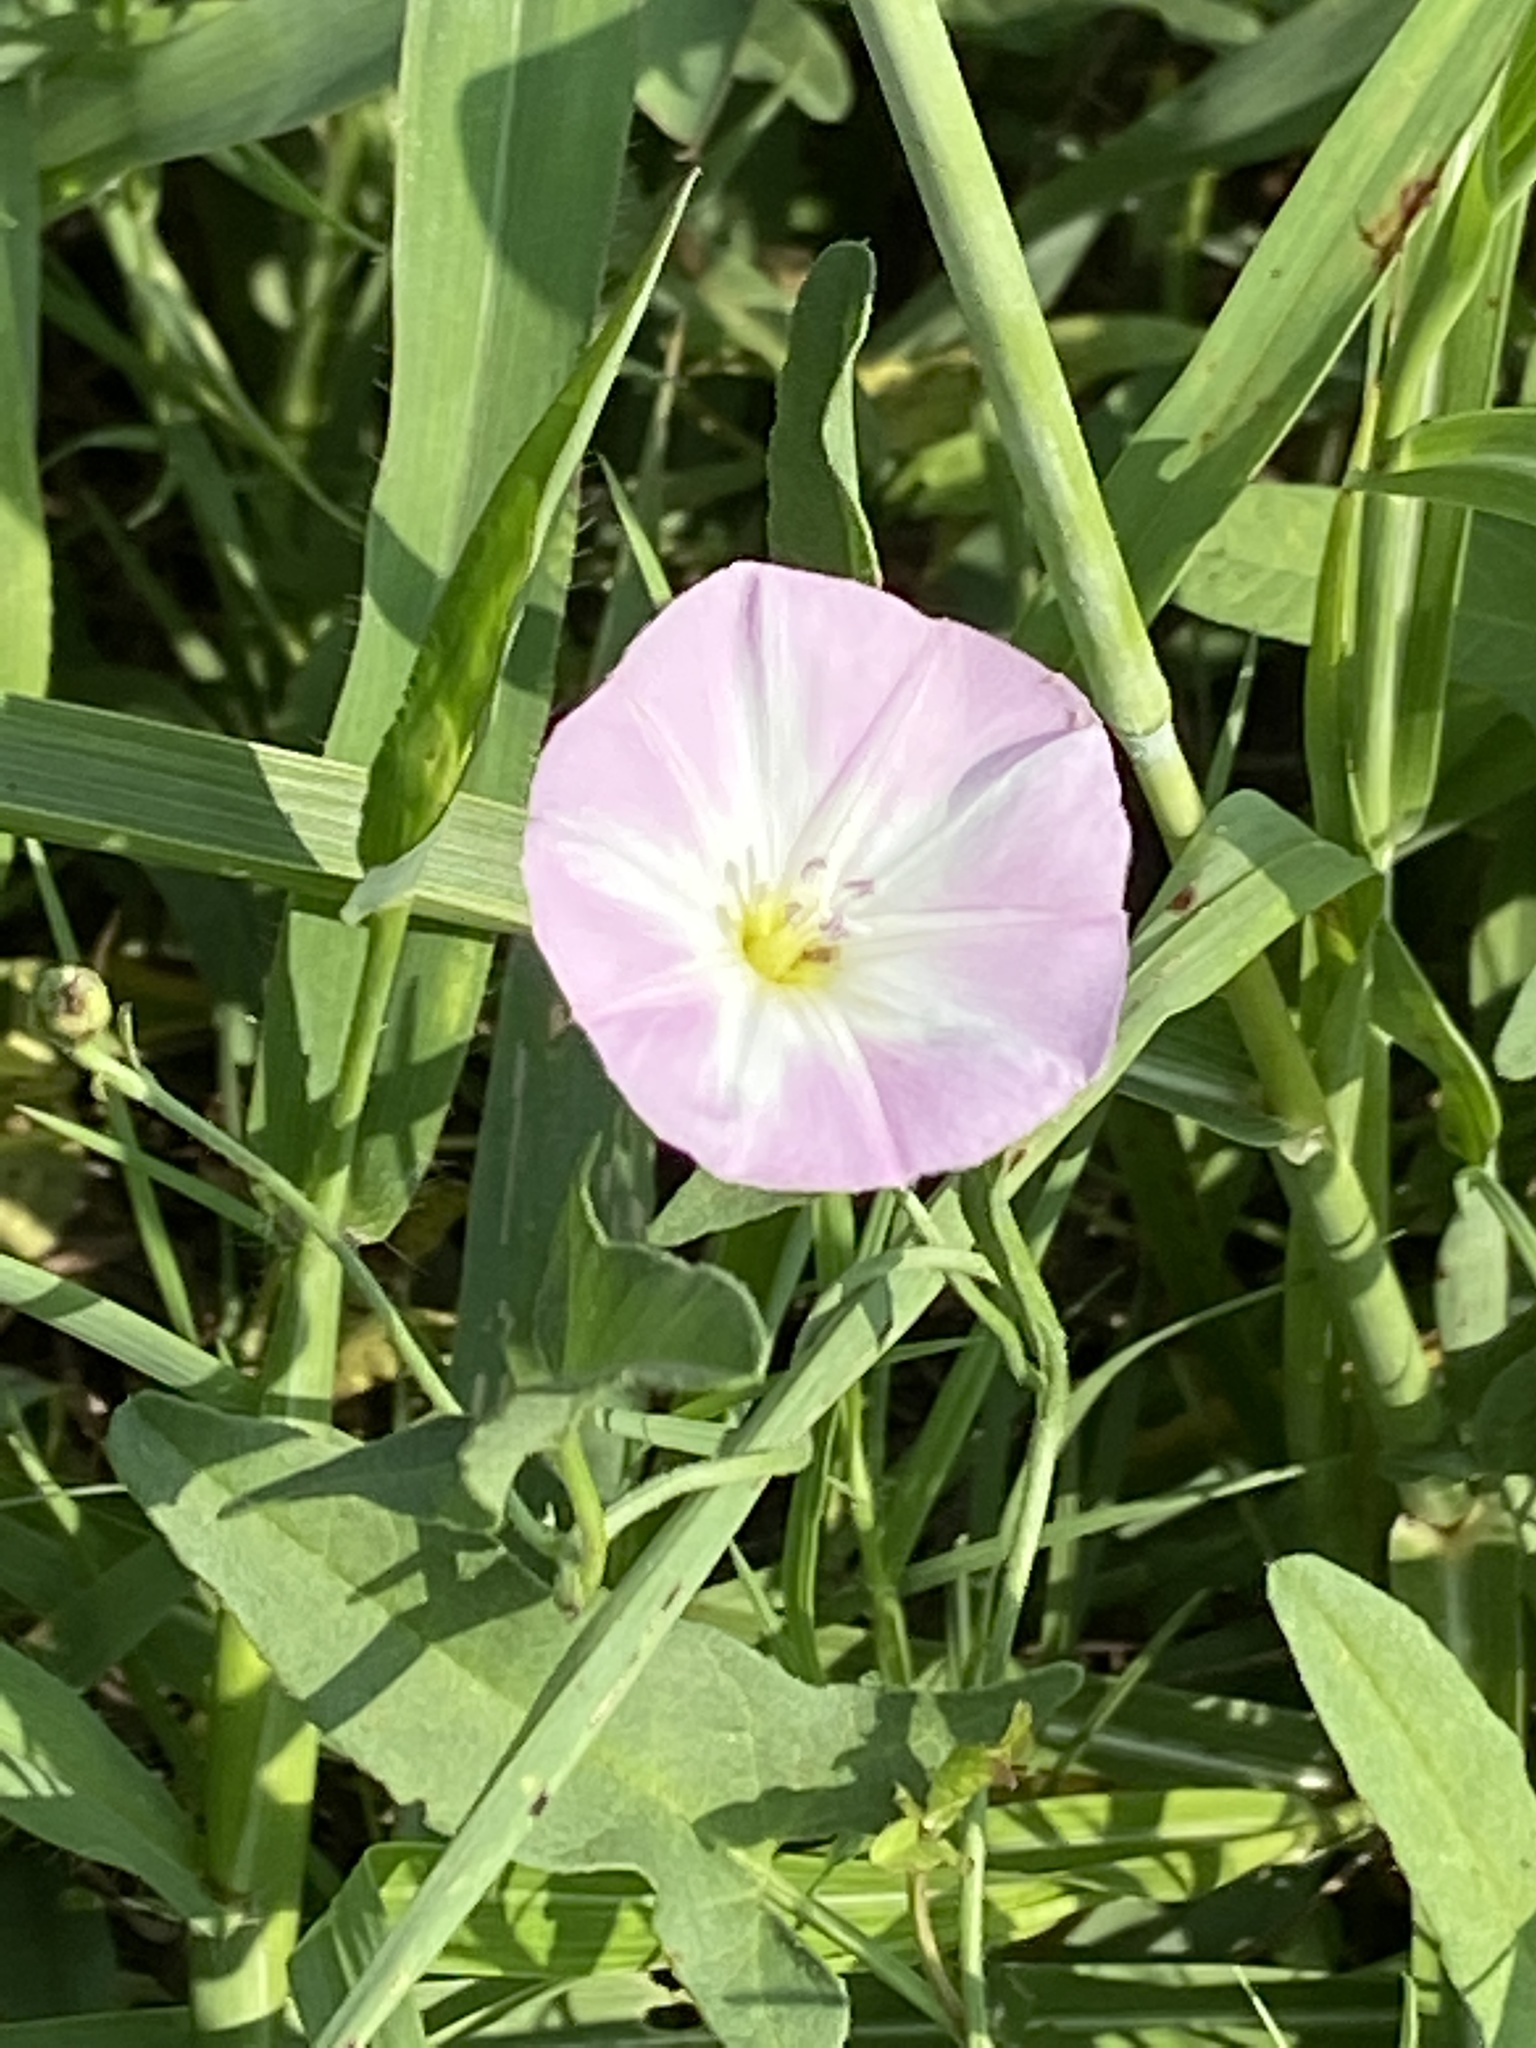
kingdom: Plantae
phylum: Tracheophyta
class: Magnoliopsida
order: Solanales
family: Convolvulaceae
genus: Convolvulus
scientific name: Convolvulus arvensis
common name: Field bindweed
